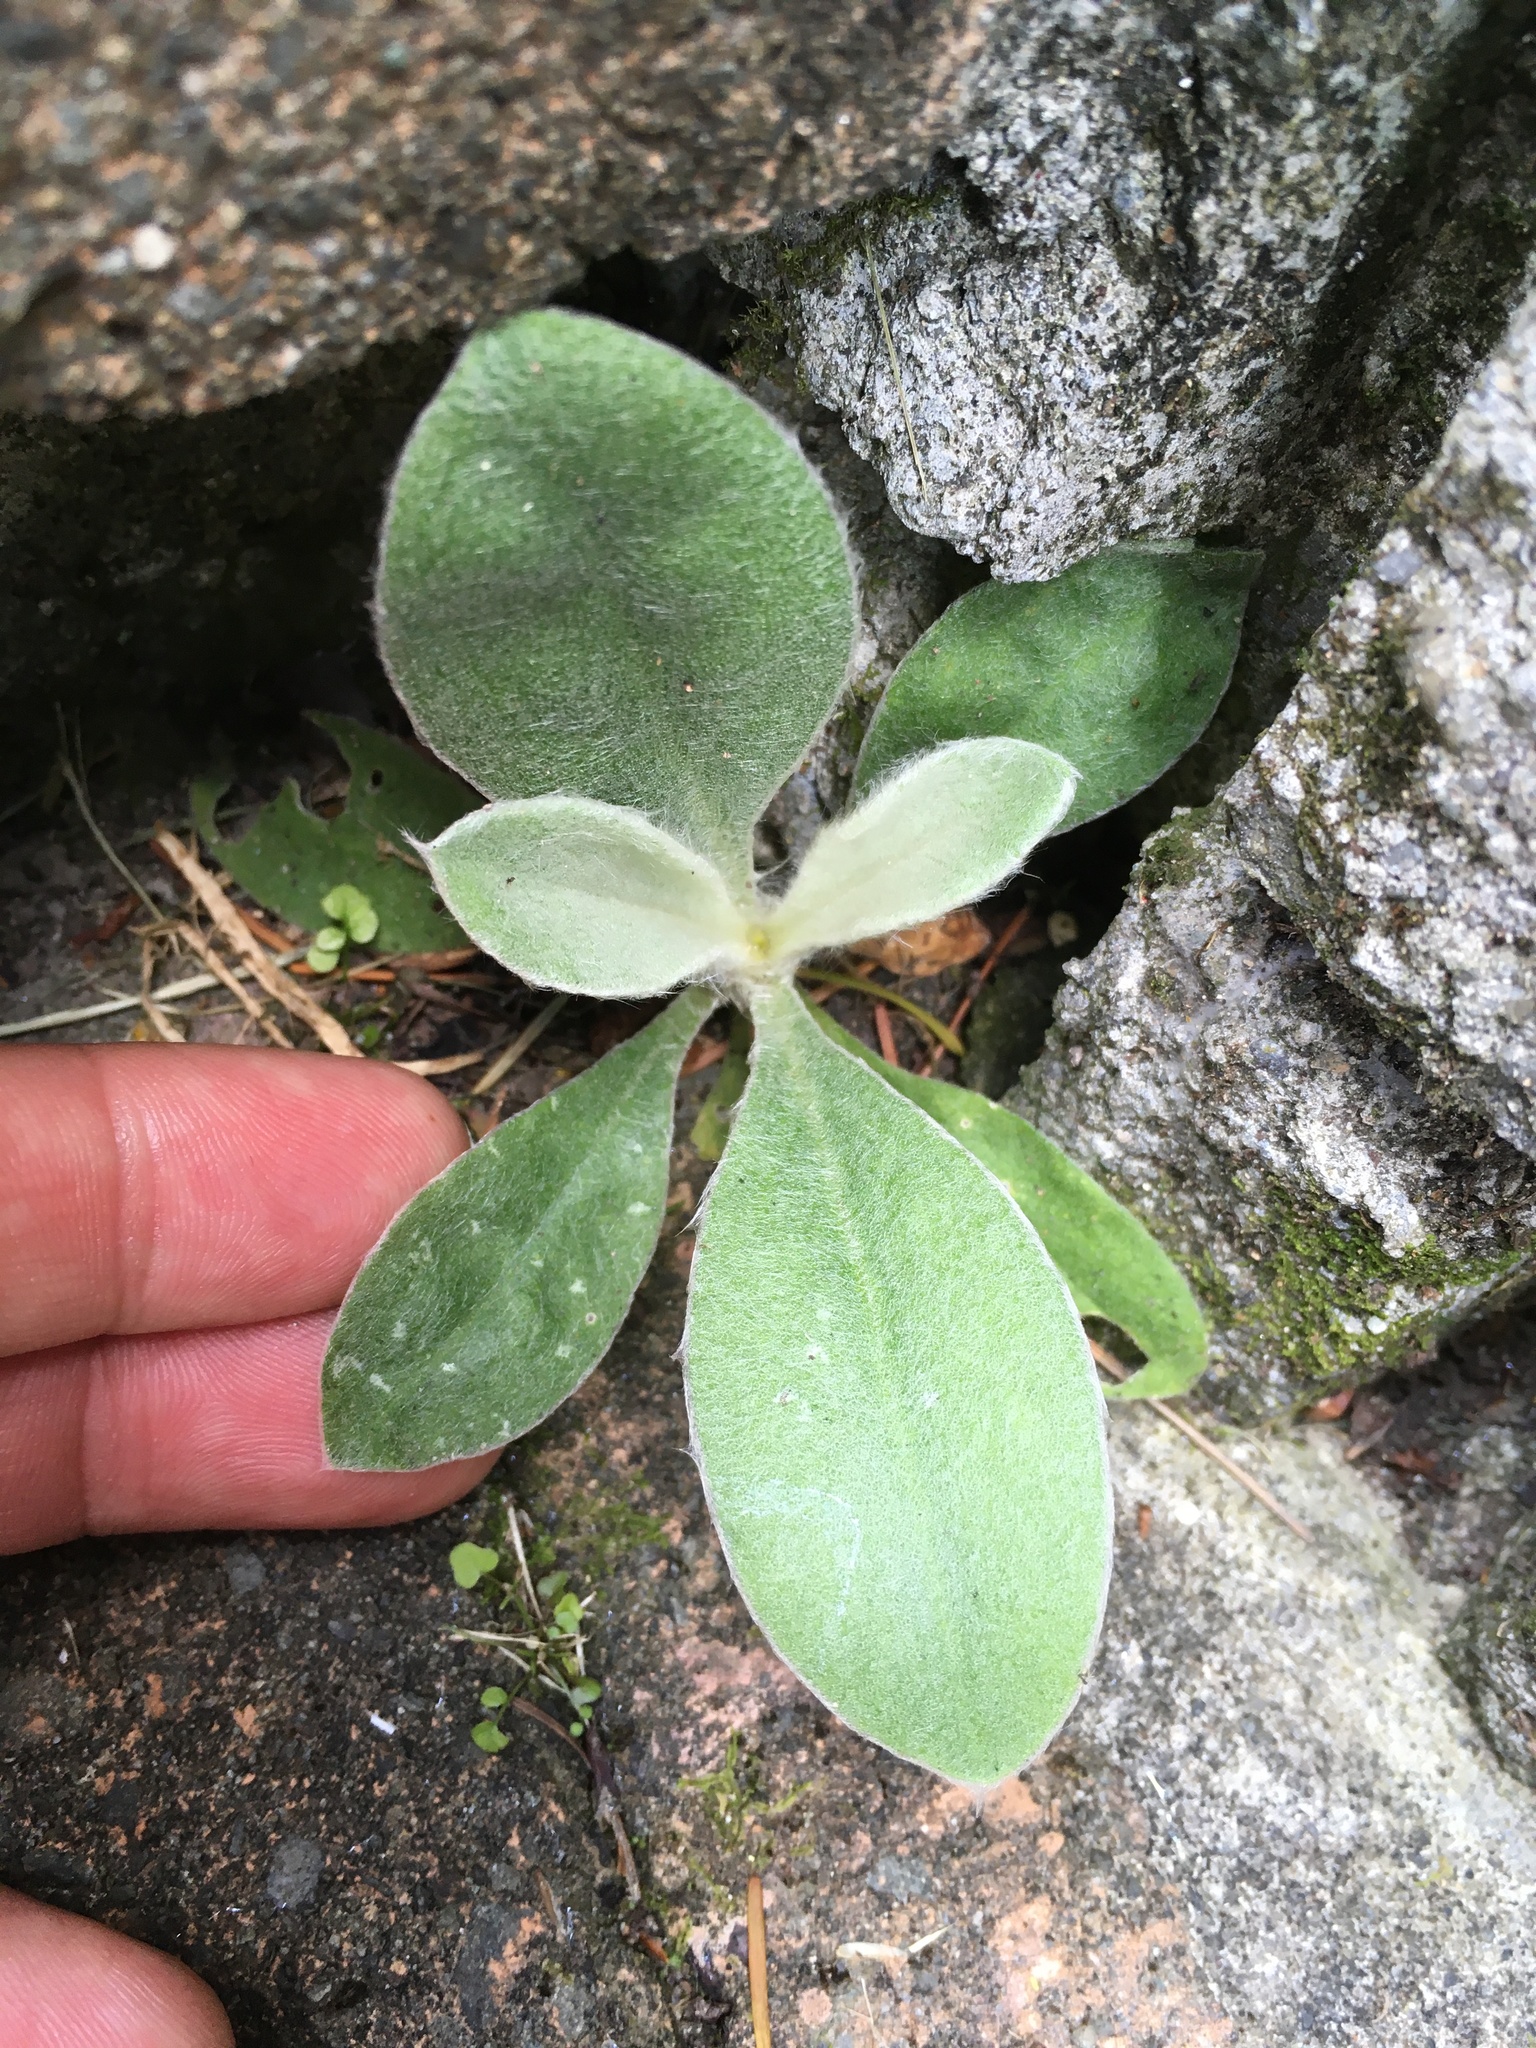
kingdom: Plantae
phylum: Tracheophyta
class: Magnoliopsida
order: Caryophyllales
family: Caryophyllaceae
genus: Silene
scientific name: Silene coronaria
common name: Rose campion
